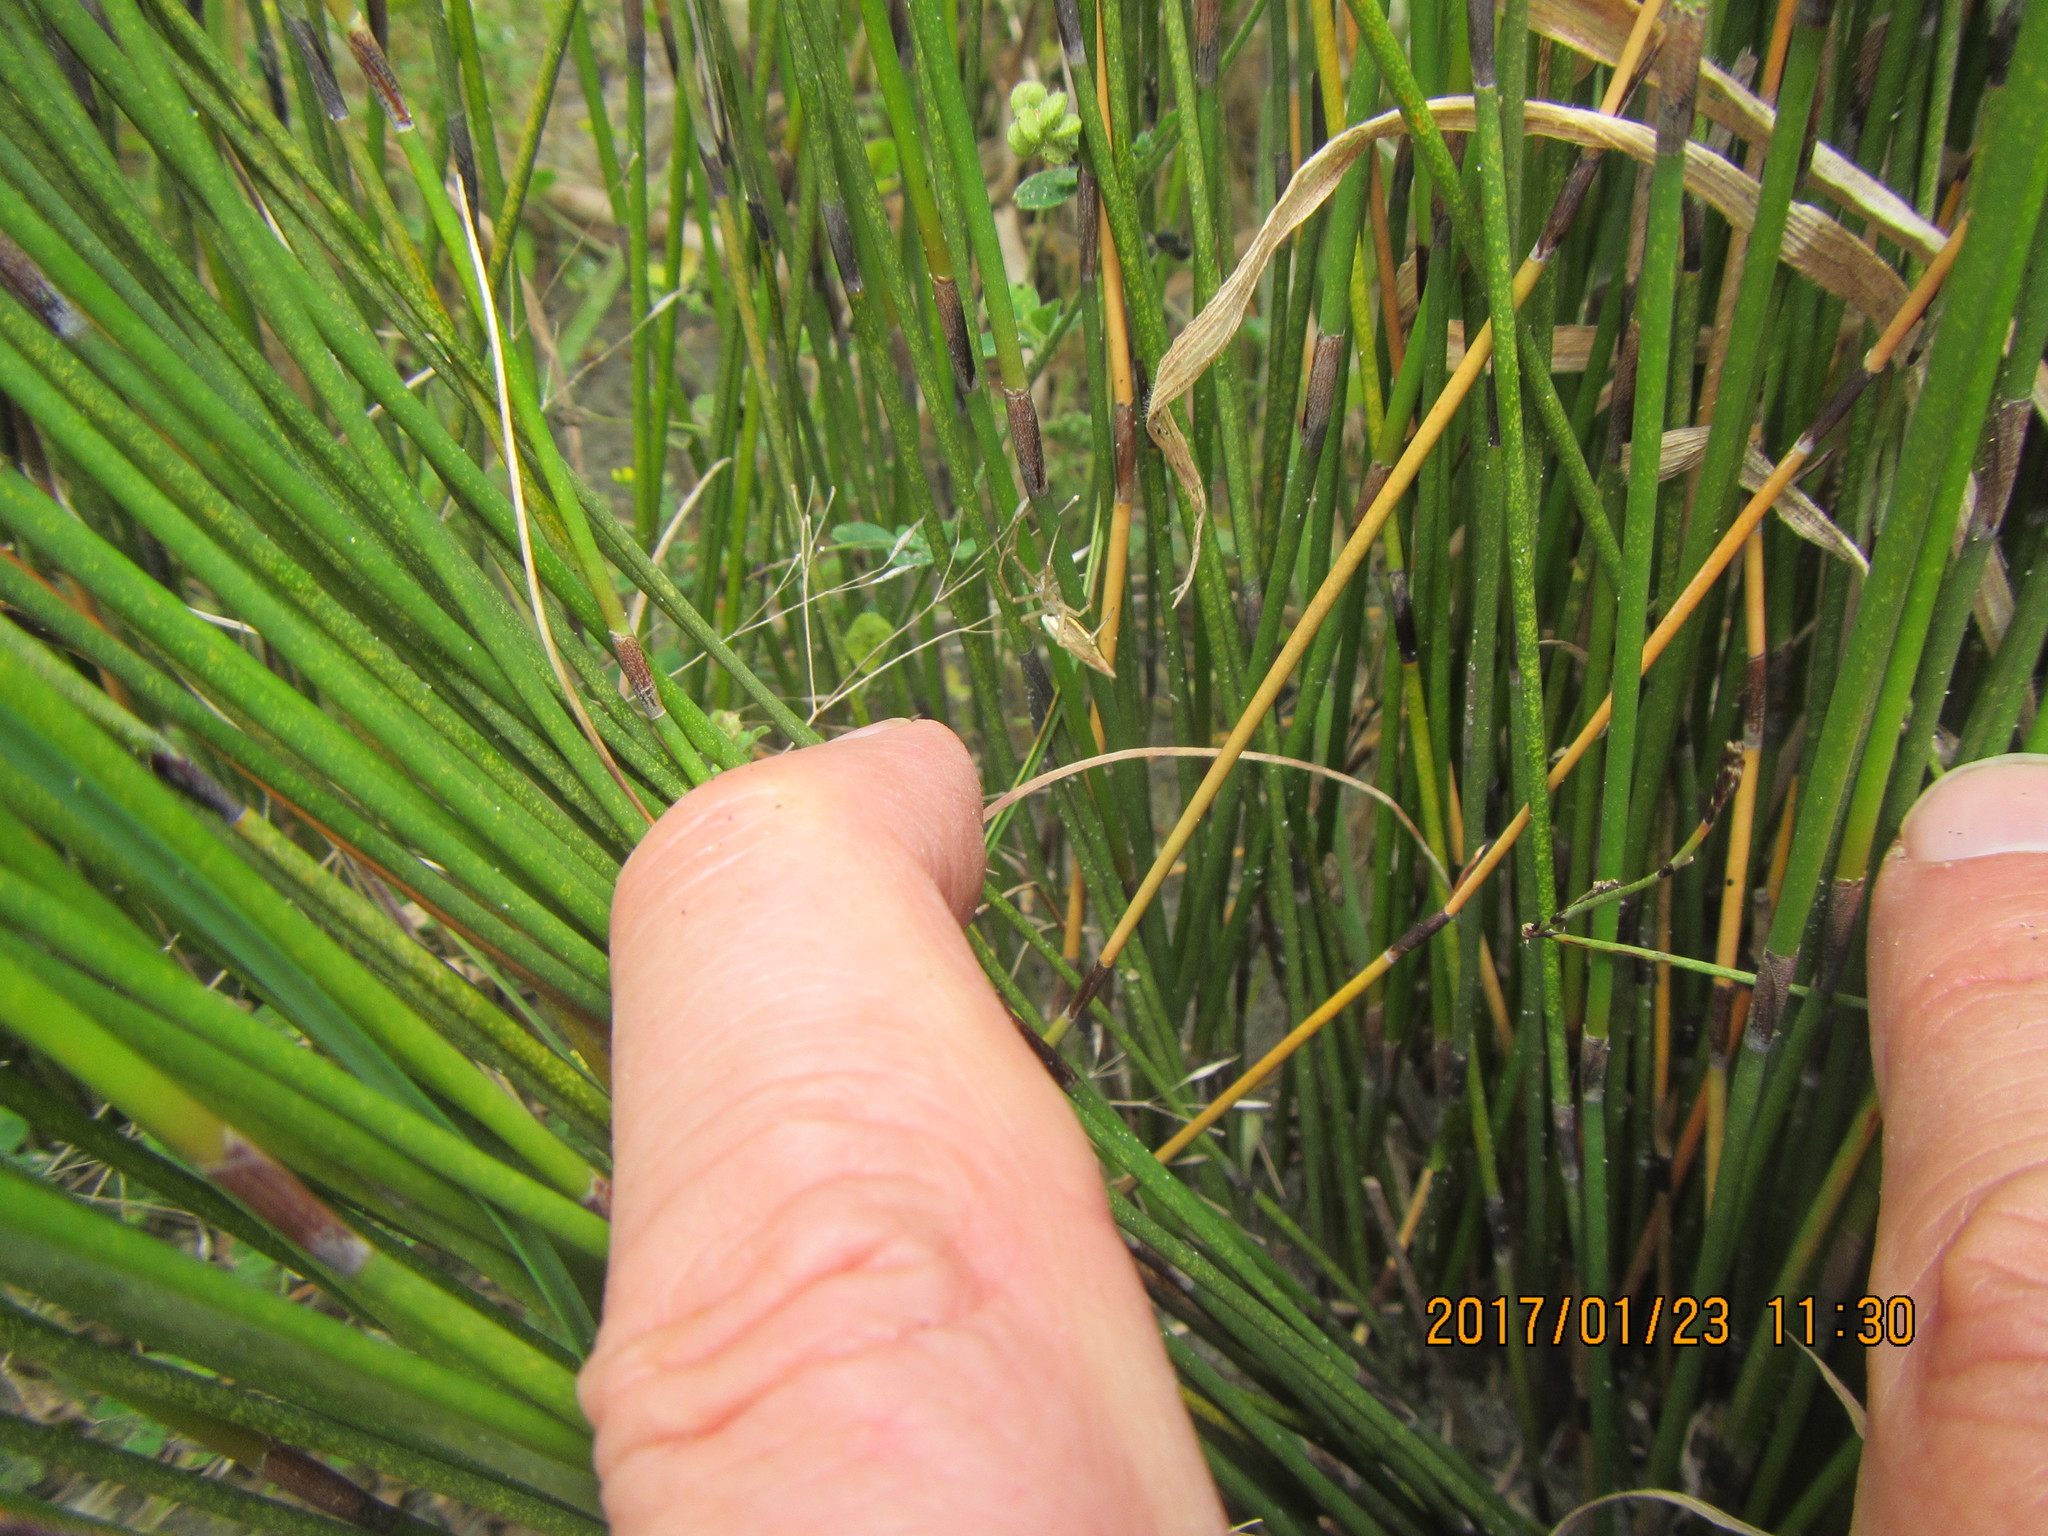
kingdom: Animalia
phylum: Arthropoda
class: Arachnida
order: Araneae
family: Araneidae
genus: Argiope
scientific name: Argiope protensa
